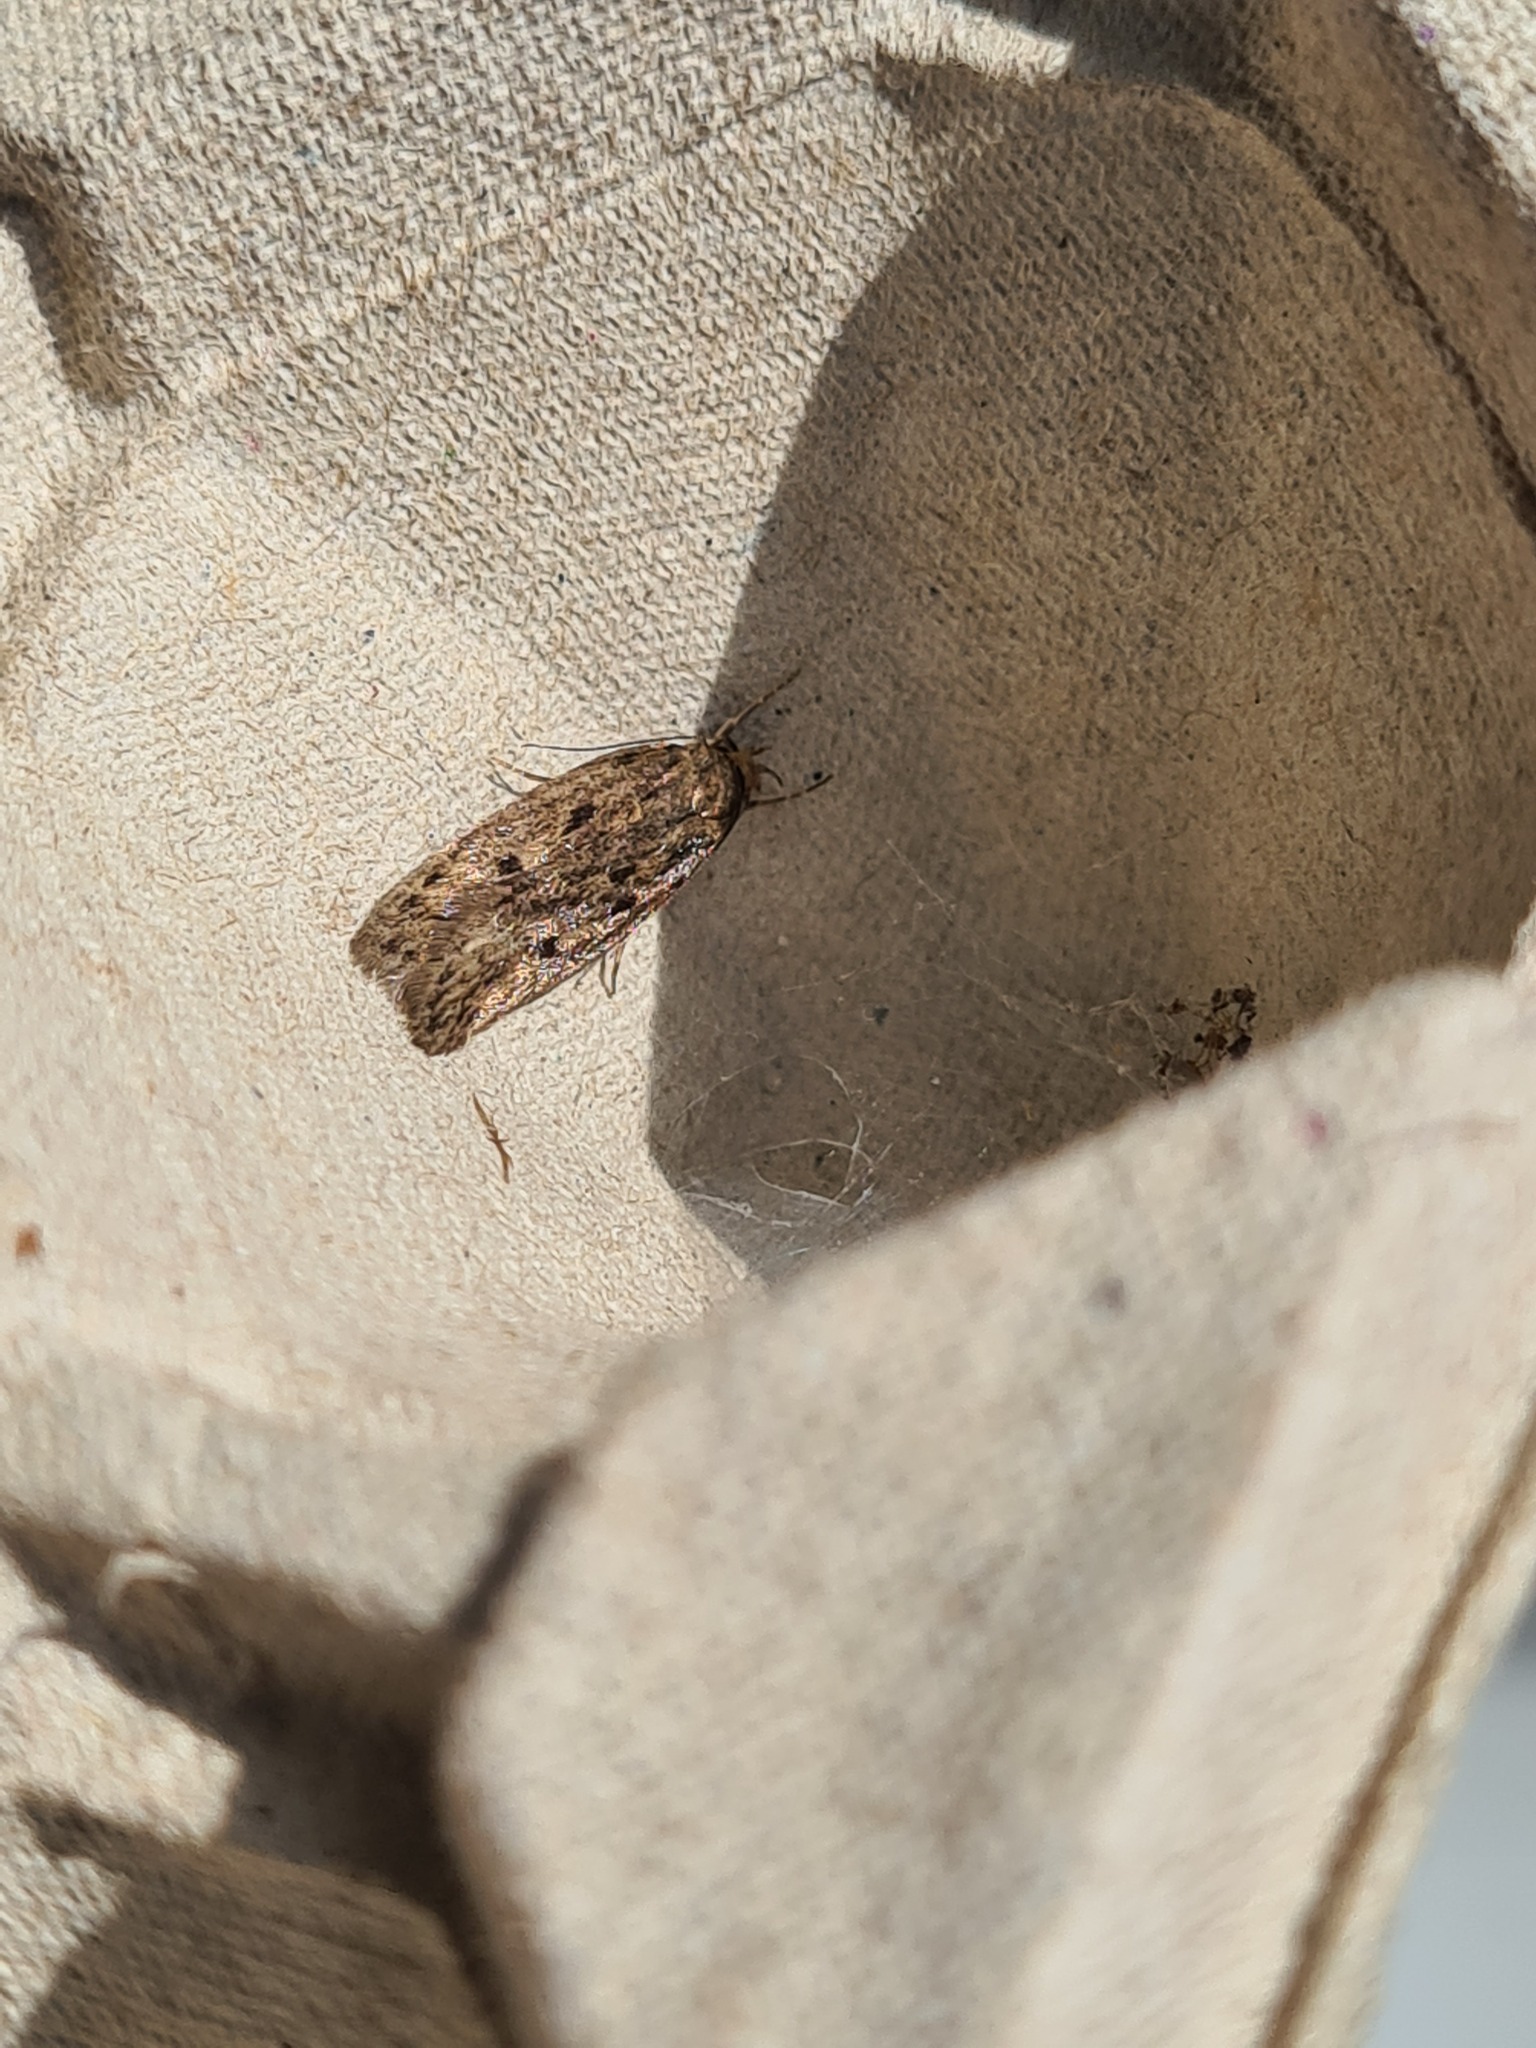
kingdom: Animalia
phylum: Arthropoda
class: Insecta
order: Lepidoptera
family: Oecophoridae
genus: Hofmannophila
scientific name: Hofmannophila pseudospretella
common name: Brown house moth
